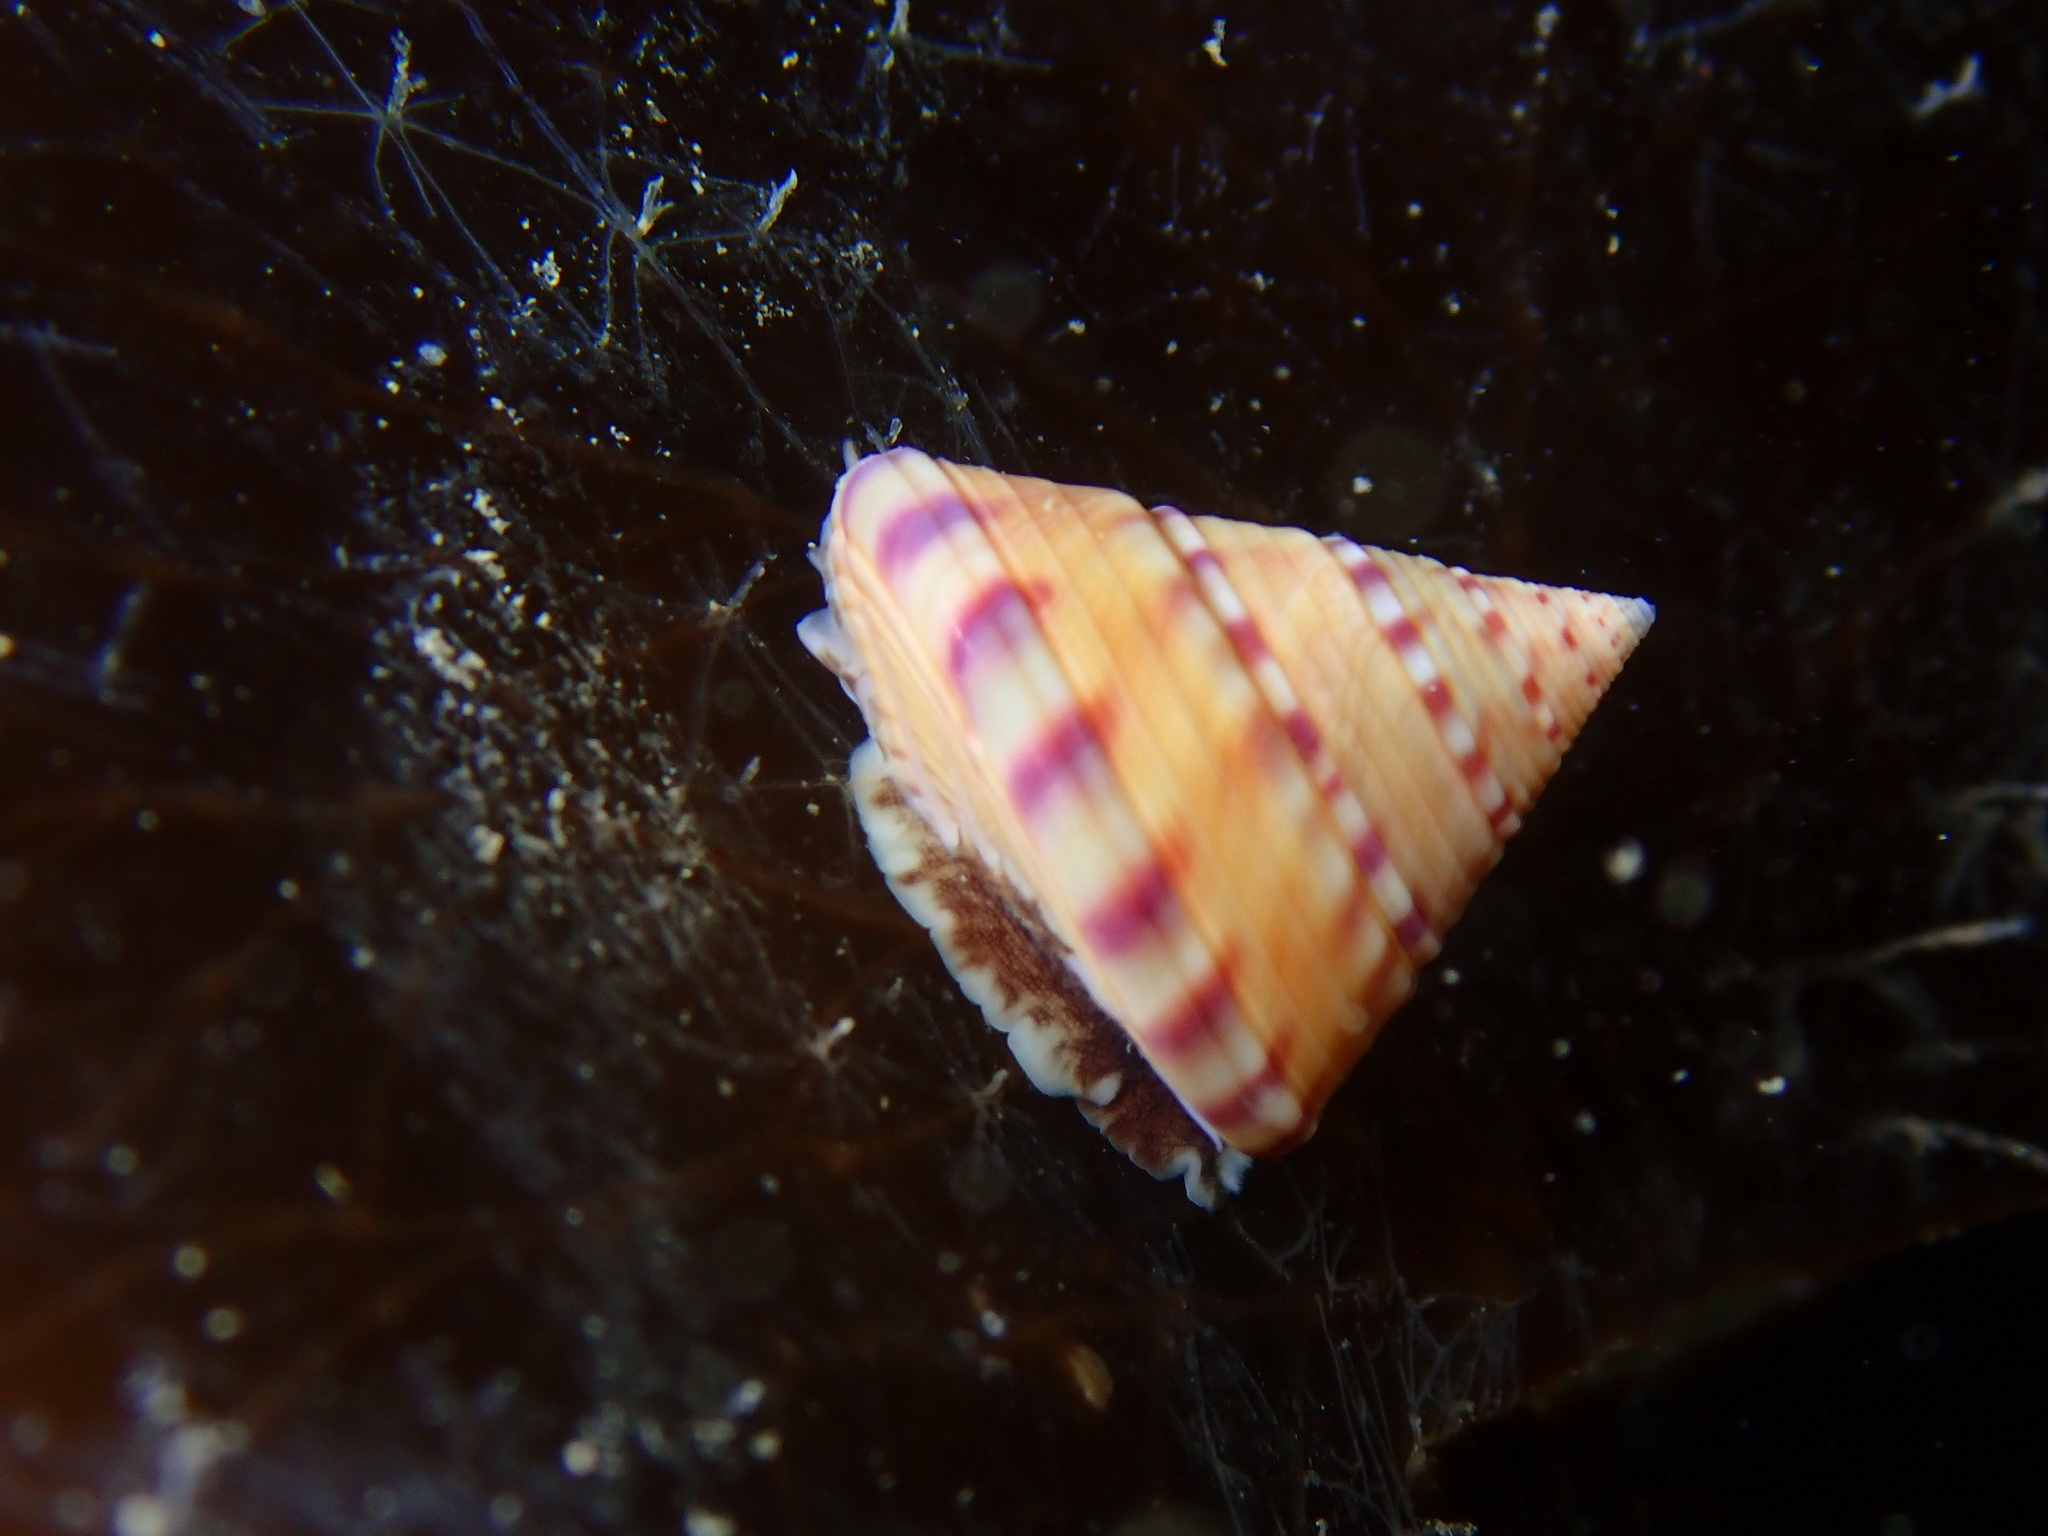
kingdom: Animalia
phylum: Mollusca
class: Gastropoda
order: Trochida
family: Calliostomatidae
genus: Calliostoma
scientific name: Calliostoma zizyphinum
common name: Painted top shell
